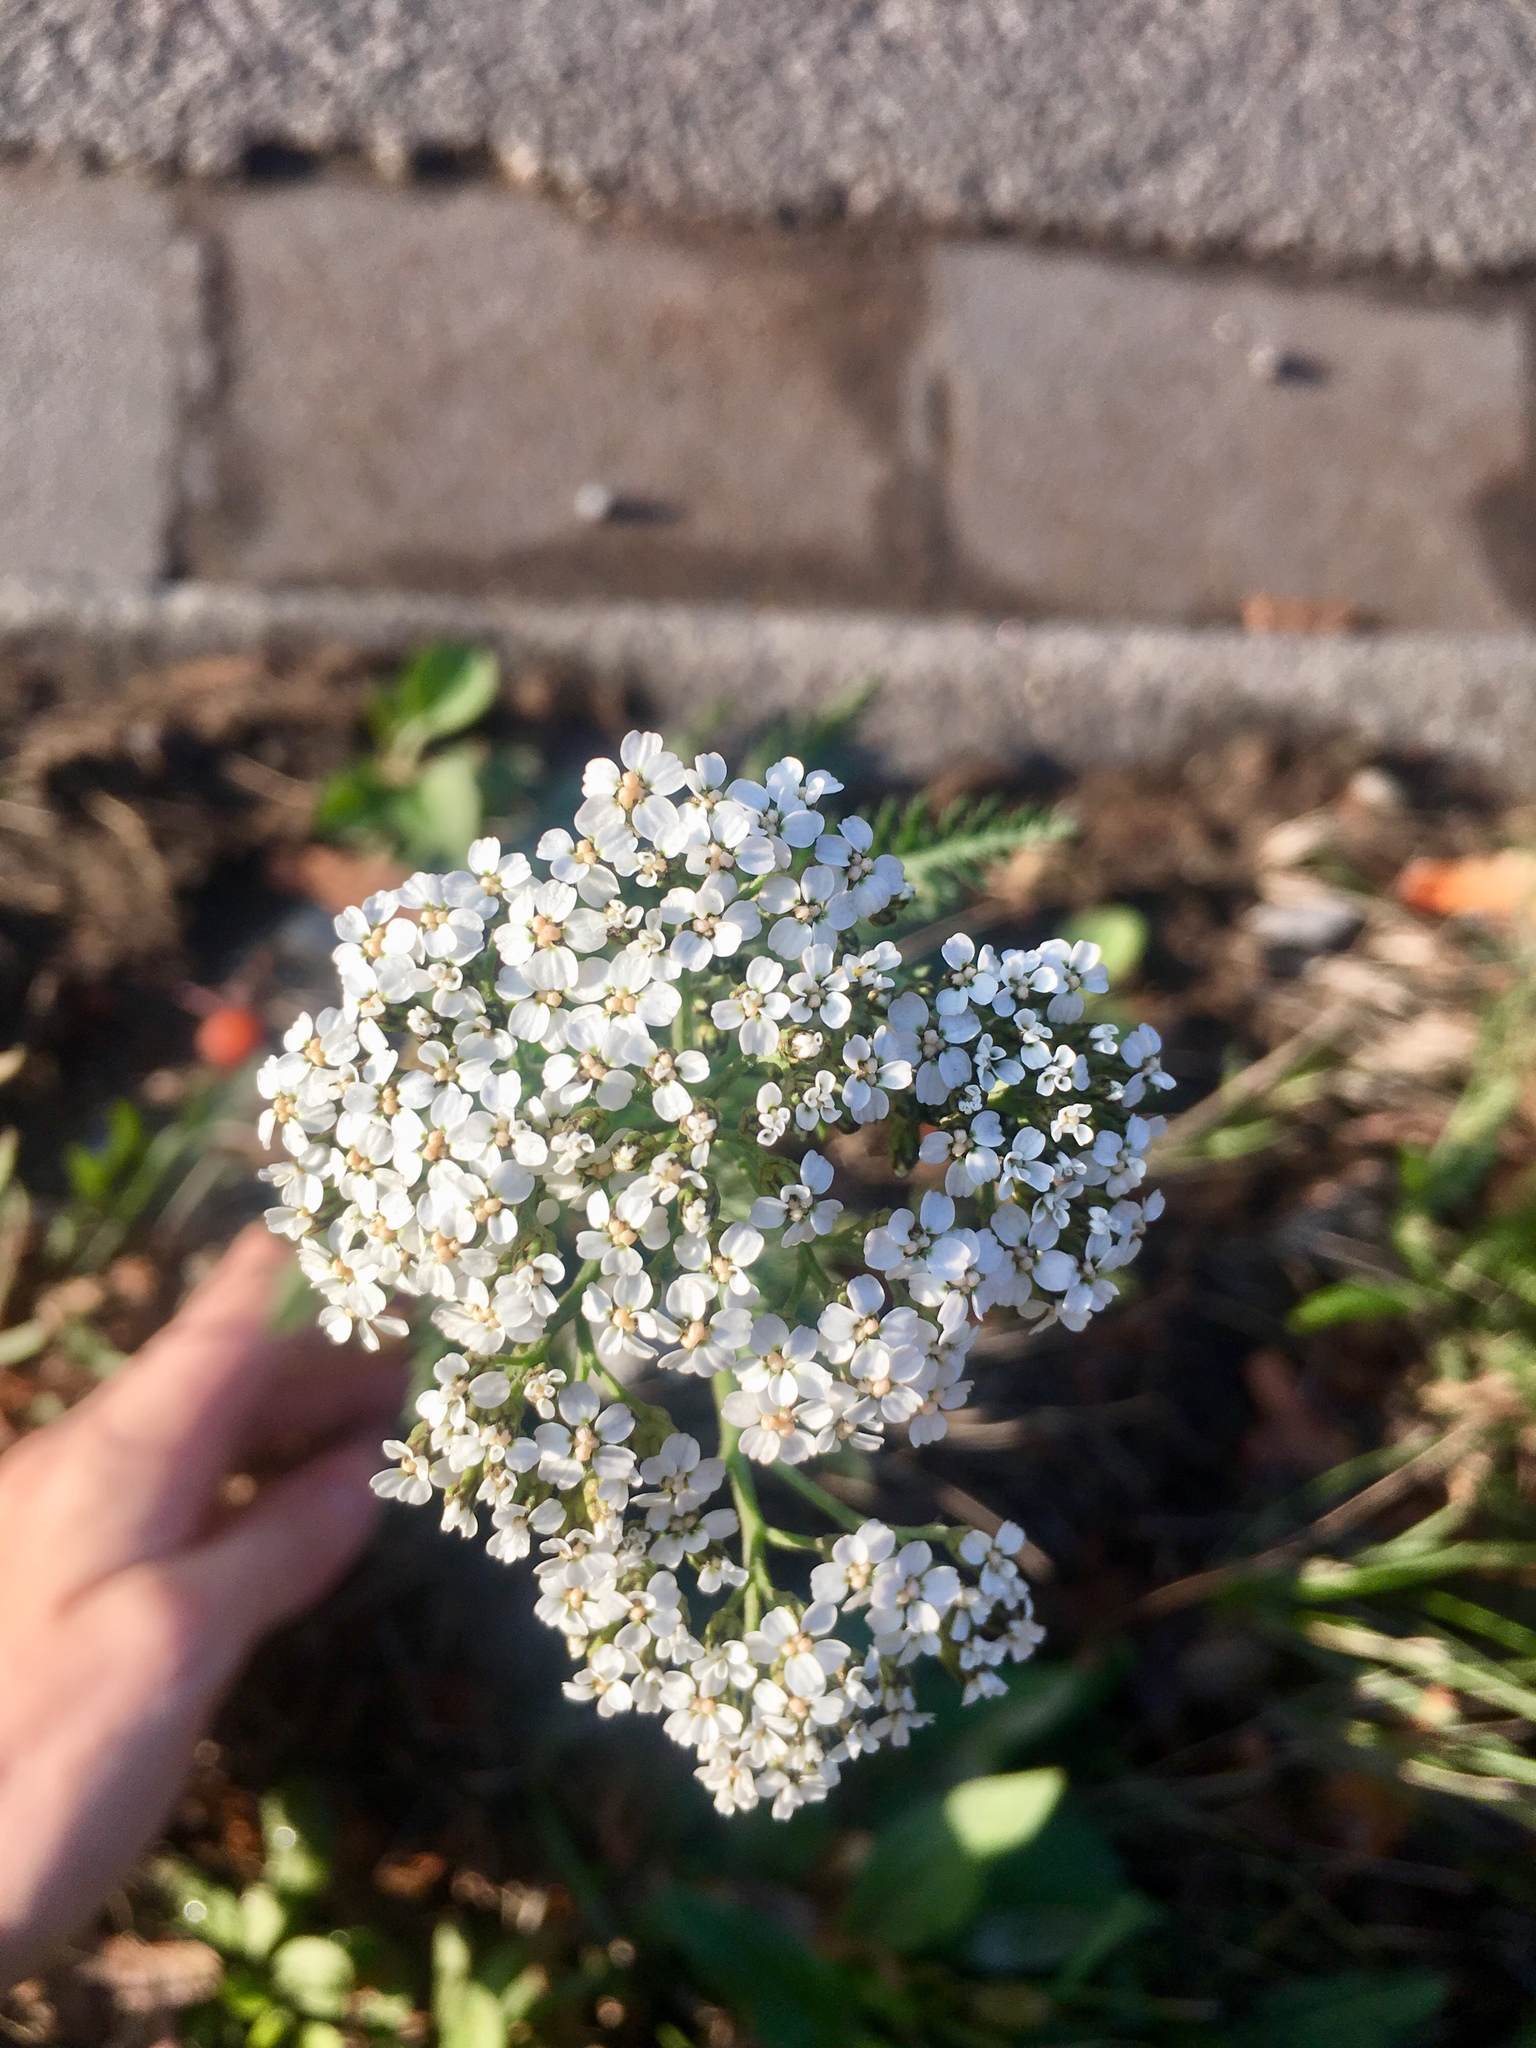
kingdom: Plantae
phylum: Tracheophyta
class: Magnoliopsida
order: Asterales
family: Asteraceae
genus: Achillea
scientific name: Achillea millefolium
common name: Yarrow
